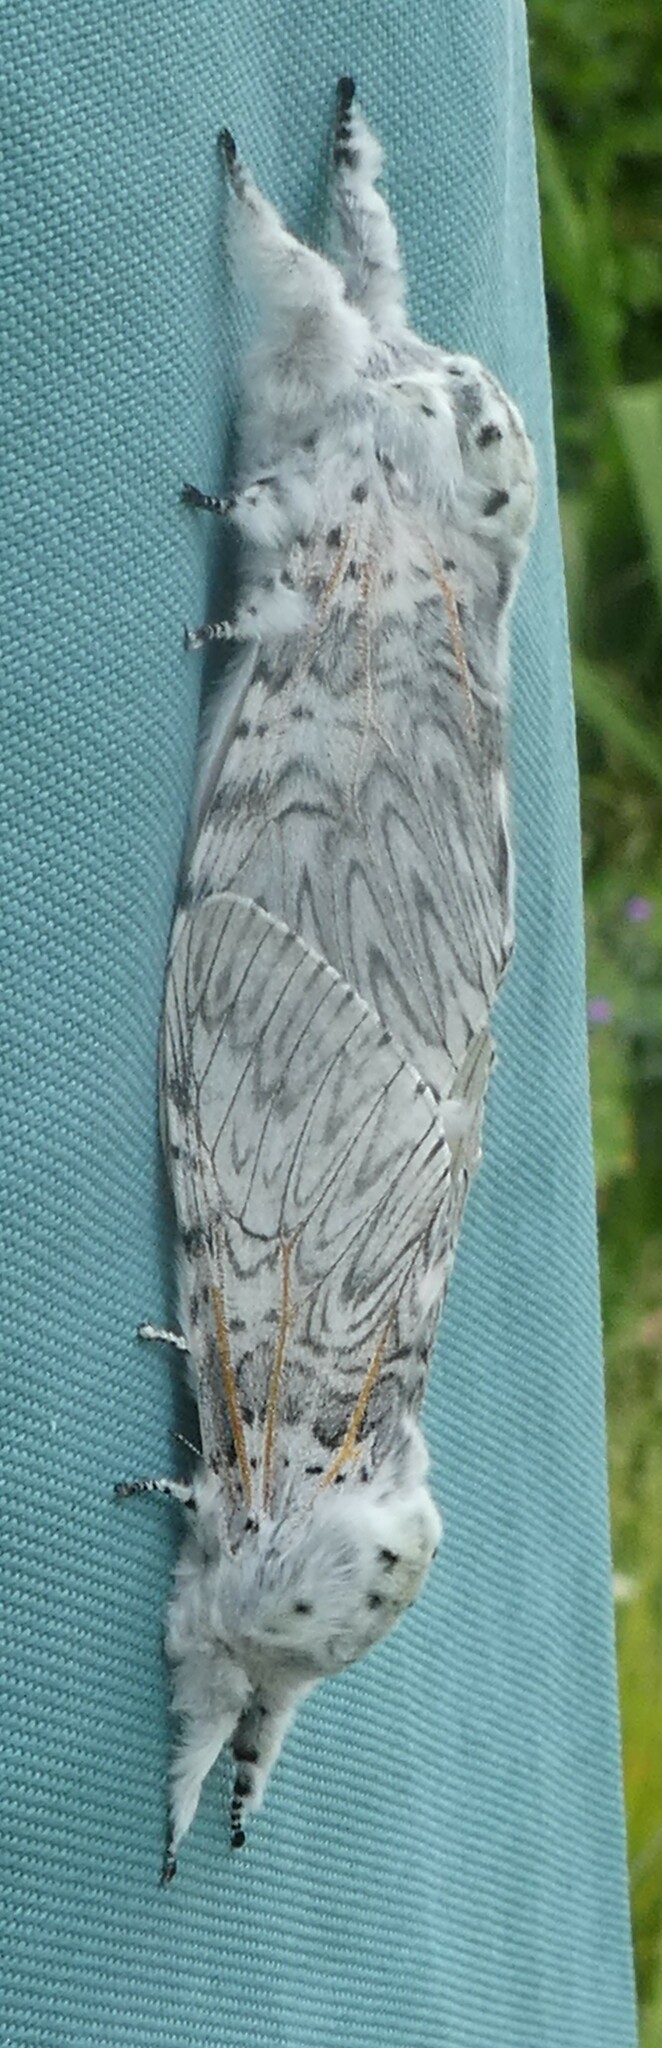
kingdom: Animalia
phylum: Arthropoda
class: Insecta
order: Lepidoptera
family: Notodontidae
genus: Cerura
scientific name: Cerura vinula
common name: Puss moth
